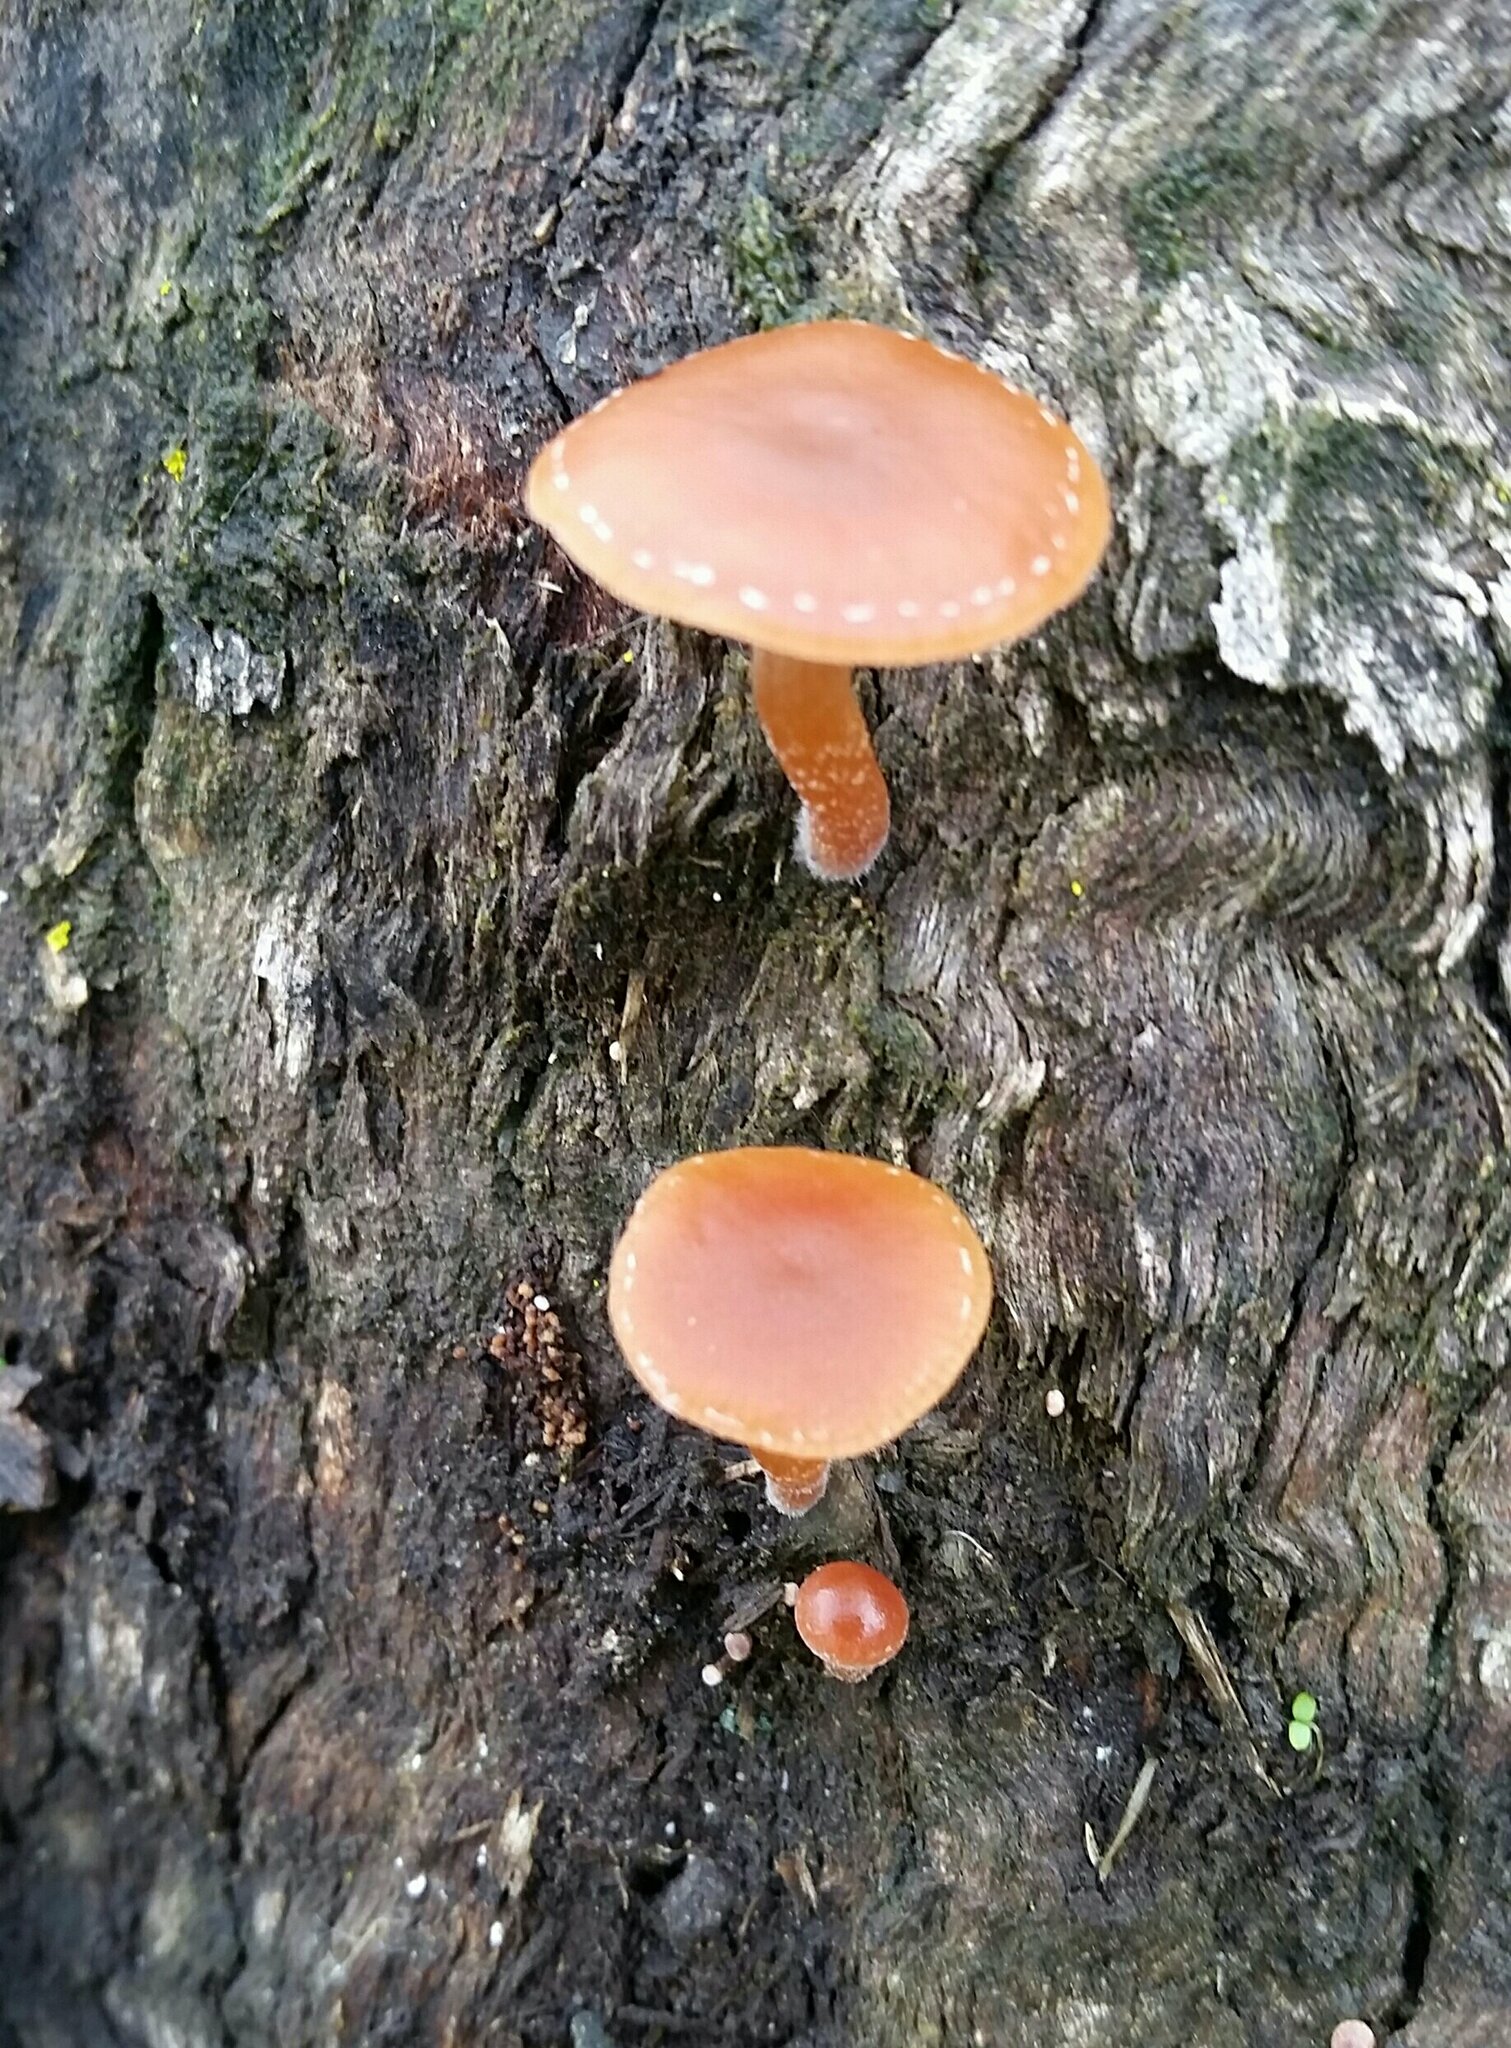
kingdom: Fungi
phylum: Basidiomycota
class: Agaricomycetes
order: Agaricales
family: Tubariaceae
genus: Tubaria
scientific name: Tubaria furfuracea
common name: Scurfy twiglet
